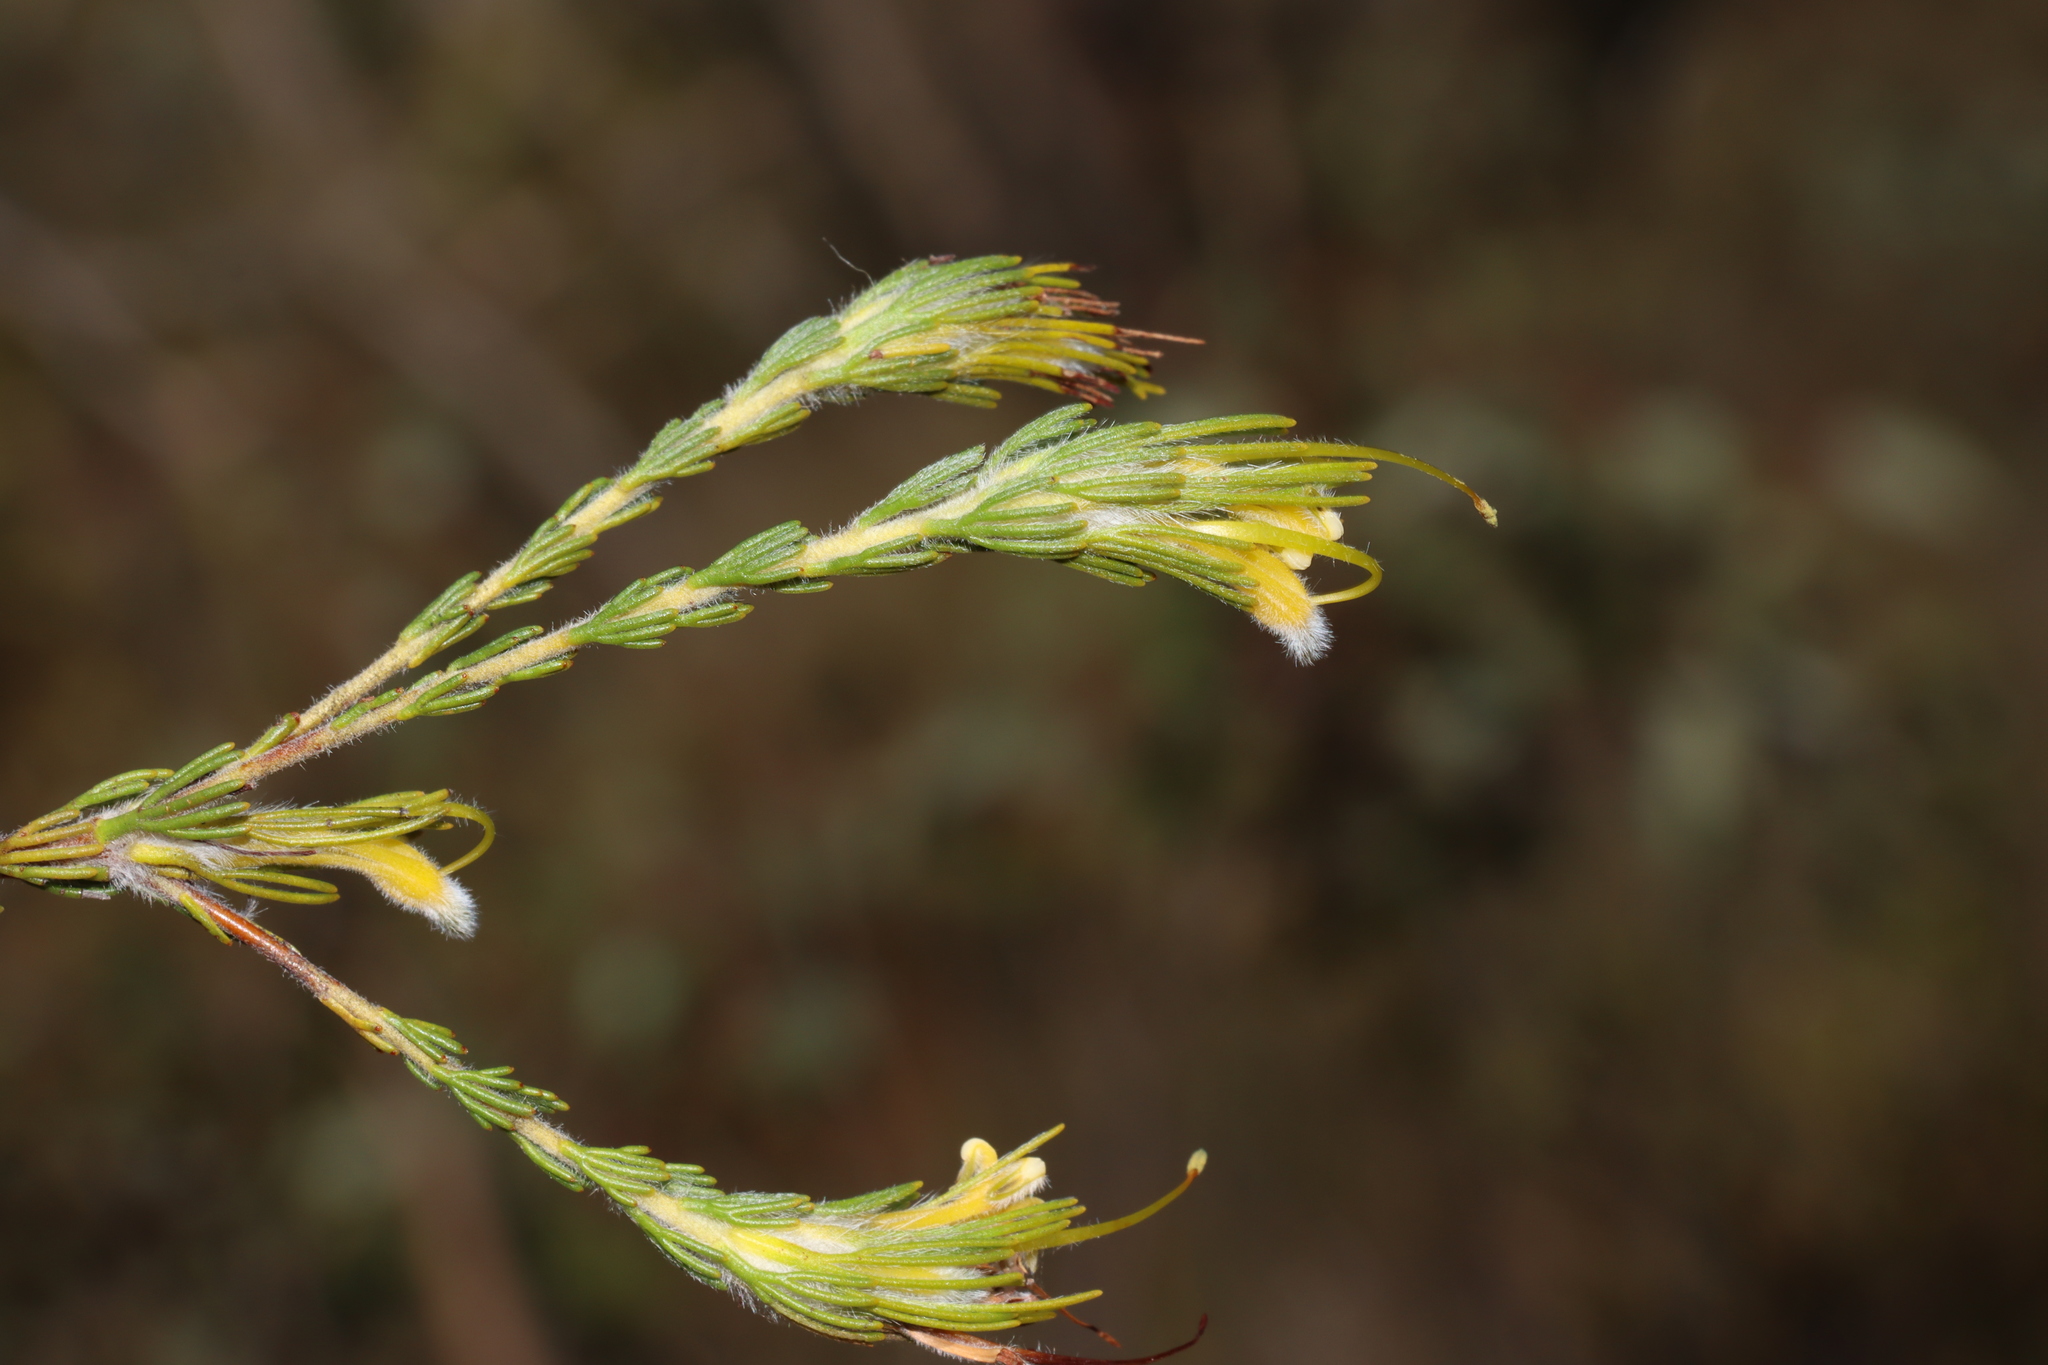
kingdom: Plantae
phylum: Tracheophyta
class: Magnoliopsida
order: Proteales
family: Proteaceae
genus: Adenanthos
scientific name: Adenanthos terminalis
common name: Yellow gland-flower
